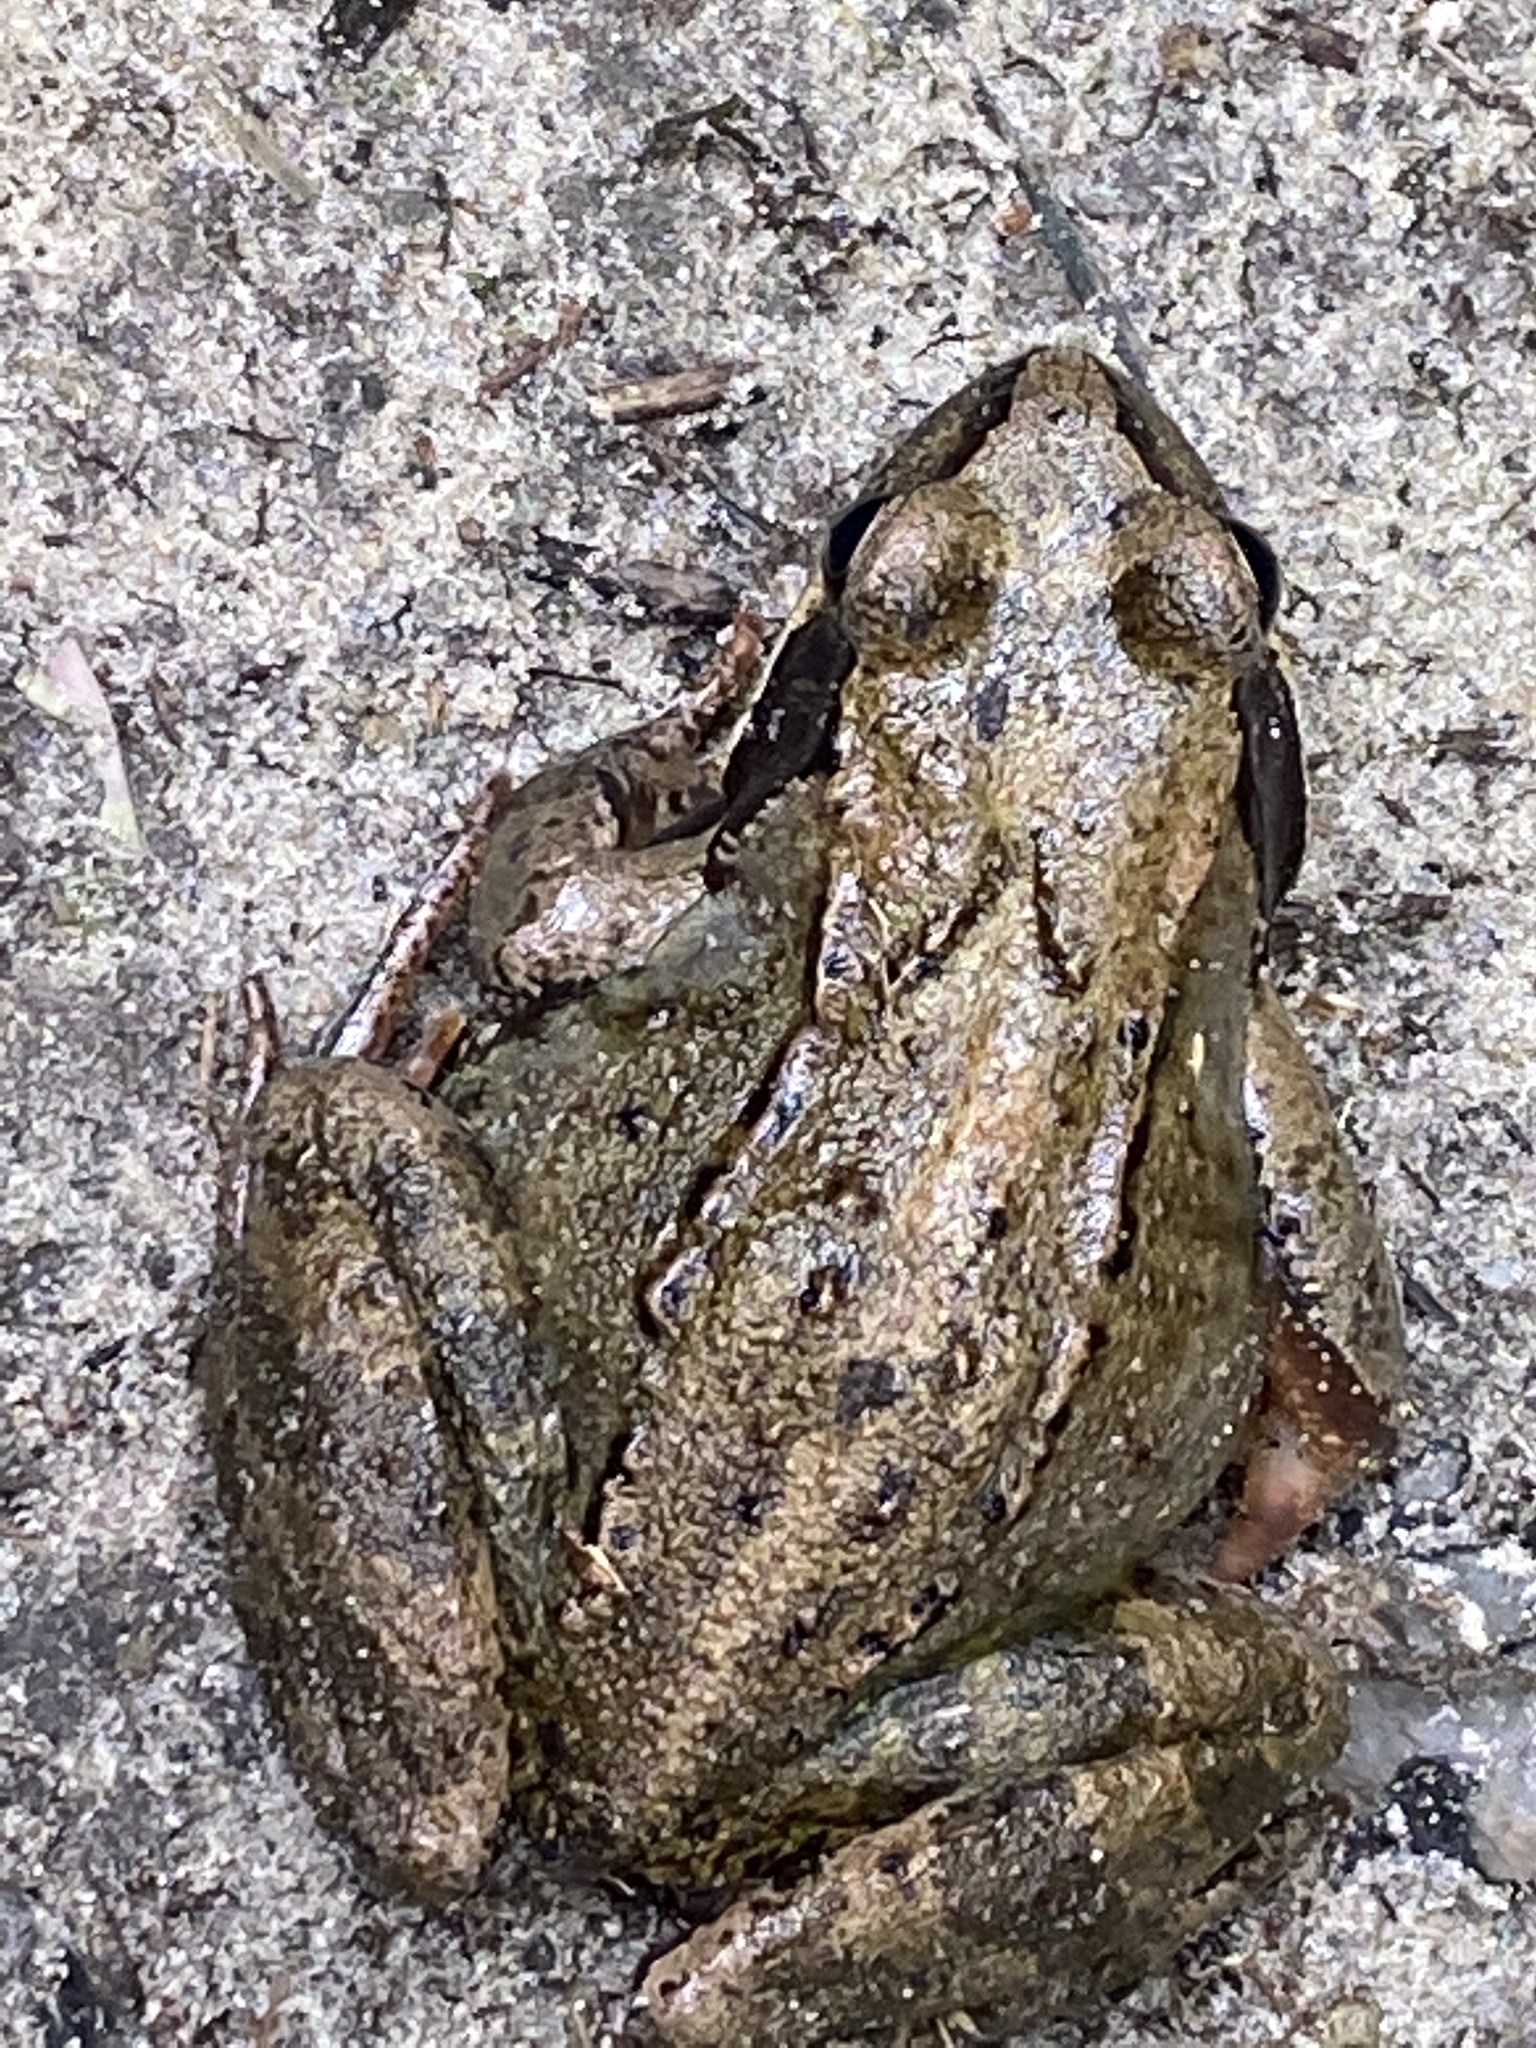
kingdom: Animalia
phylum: Chordata
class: Amphibia
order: Anura
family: Ranidae
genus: Rana
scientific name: Rana temporaria
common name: Common frog
